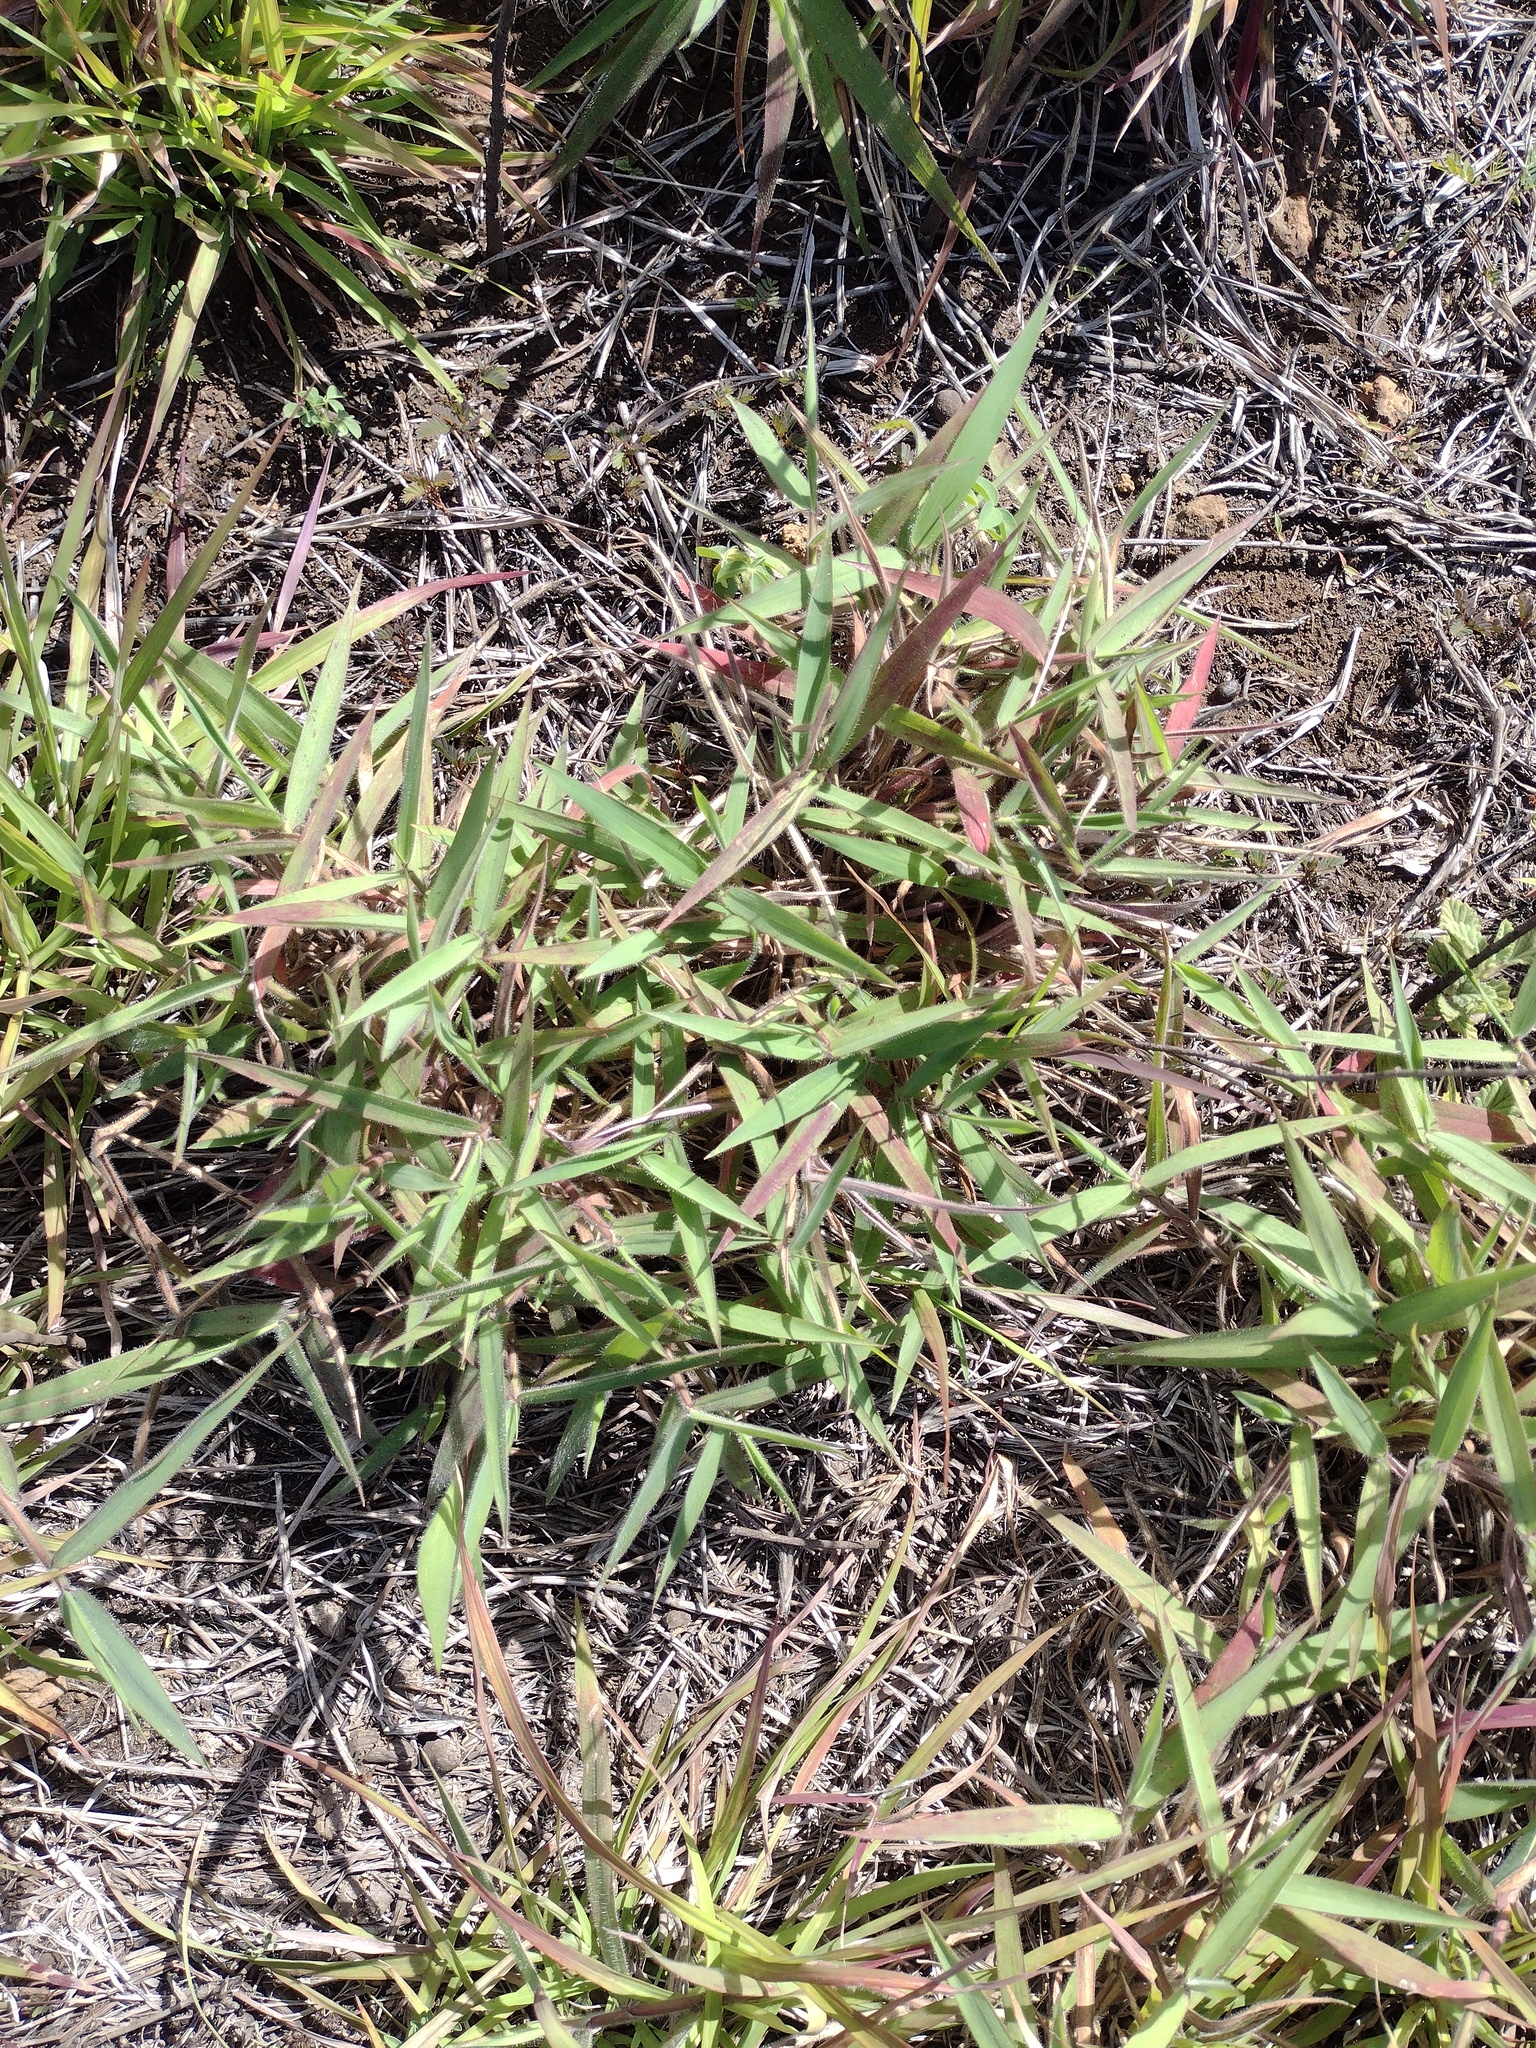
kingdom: Plantae
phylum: Tracheophyta
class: Liliopsida
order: Poales
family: Poaceae
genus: Melinis
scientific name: Melinis minutiflora
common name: Molassesgrass
